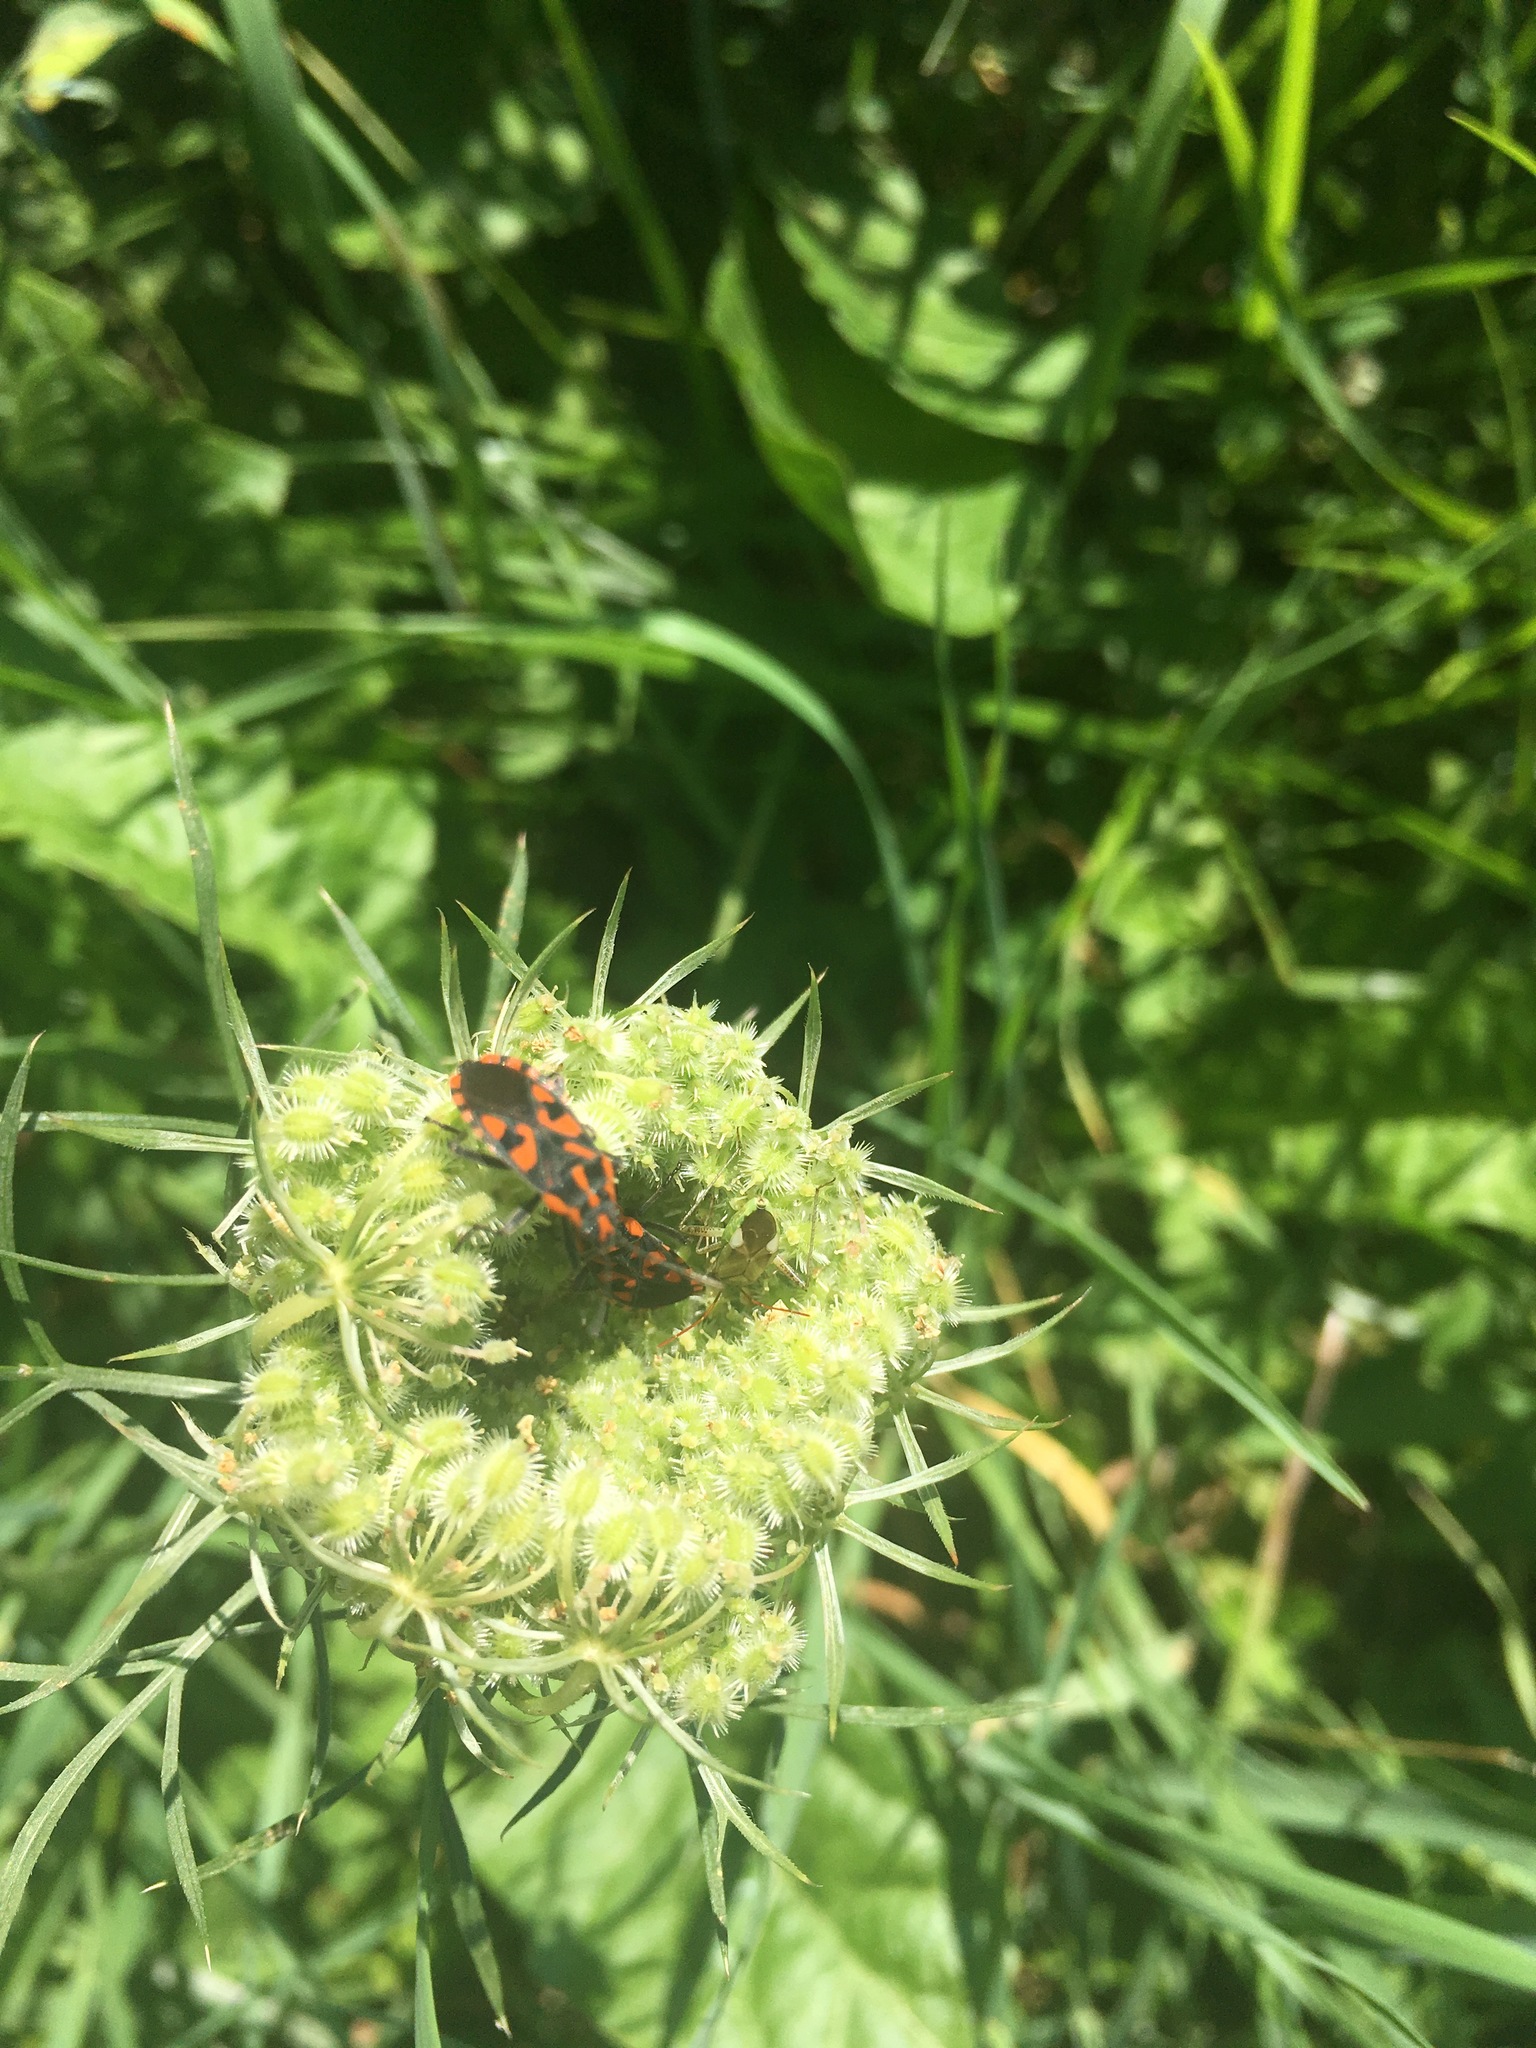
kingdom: Animalia
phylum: Arthropoda
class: Insecta
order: Hemiptera
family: Lygaeidae
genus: Spilostethus
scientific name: Spilostethus saxatilis
